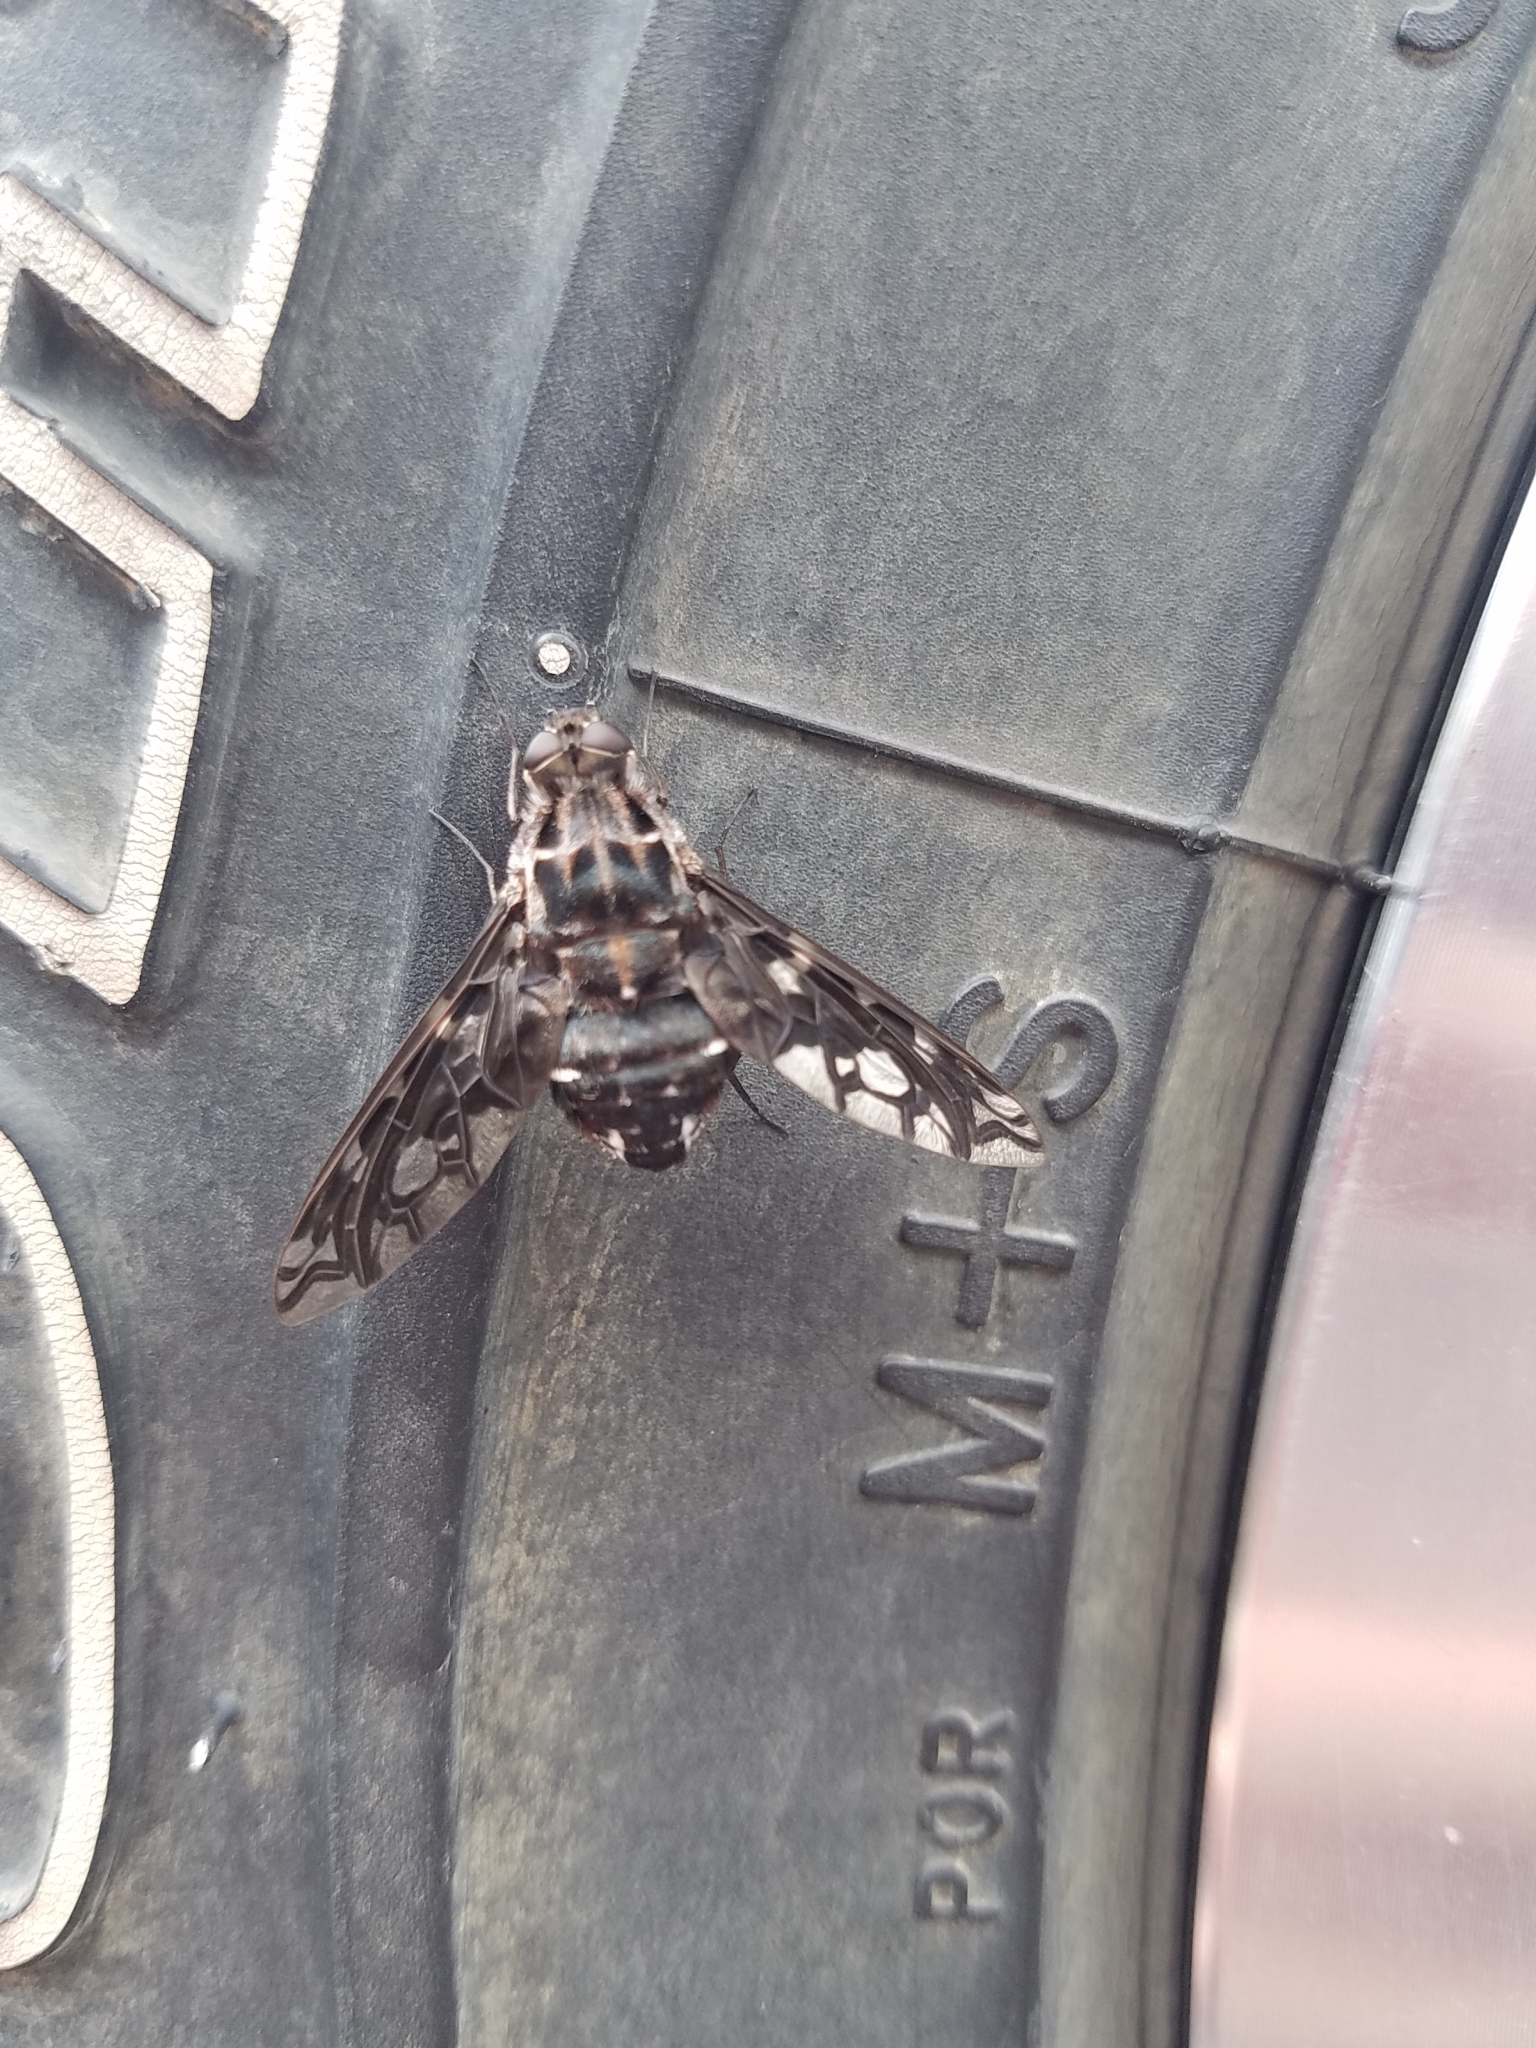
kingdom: Animalia
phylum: Arthropoda
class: Insecta
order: Diptera
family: Bombyliidae
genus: Xenox
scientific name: Xenox tigrinus
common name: Tiger bee fly
